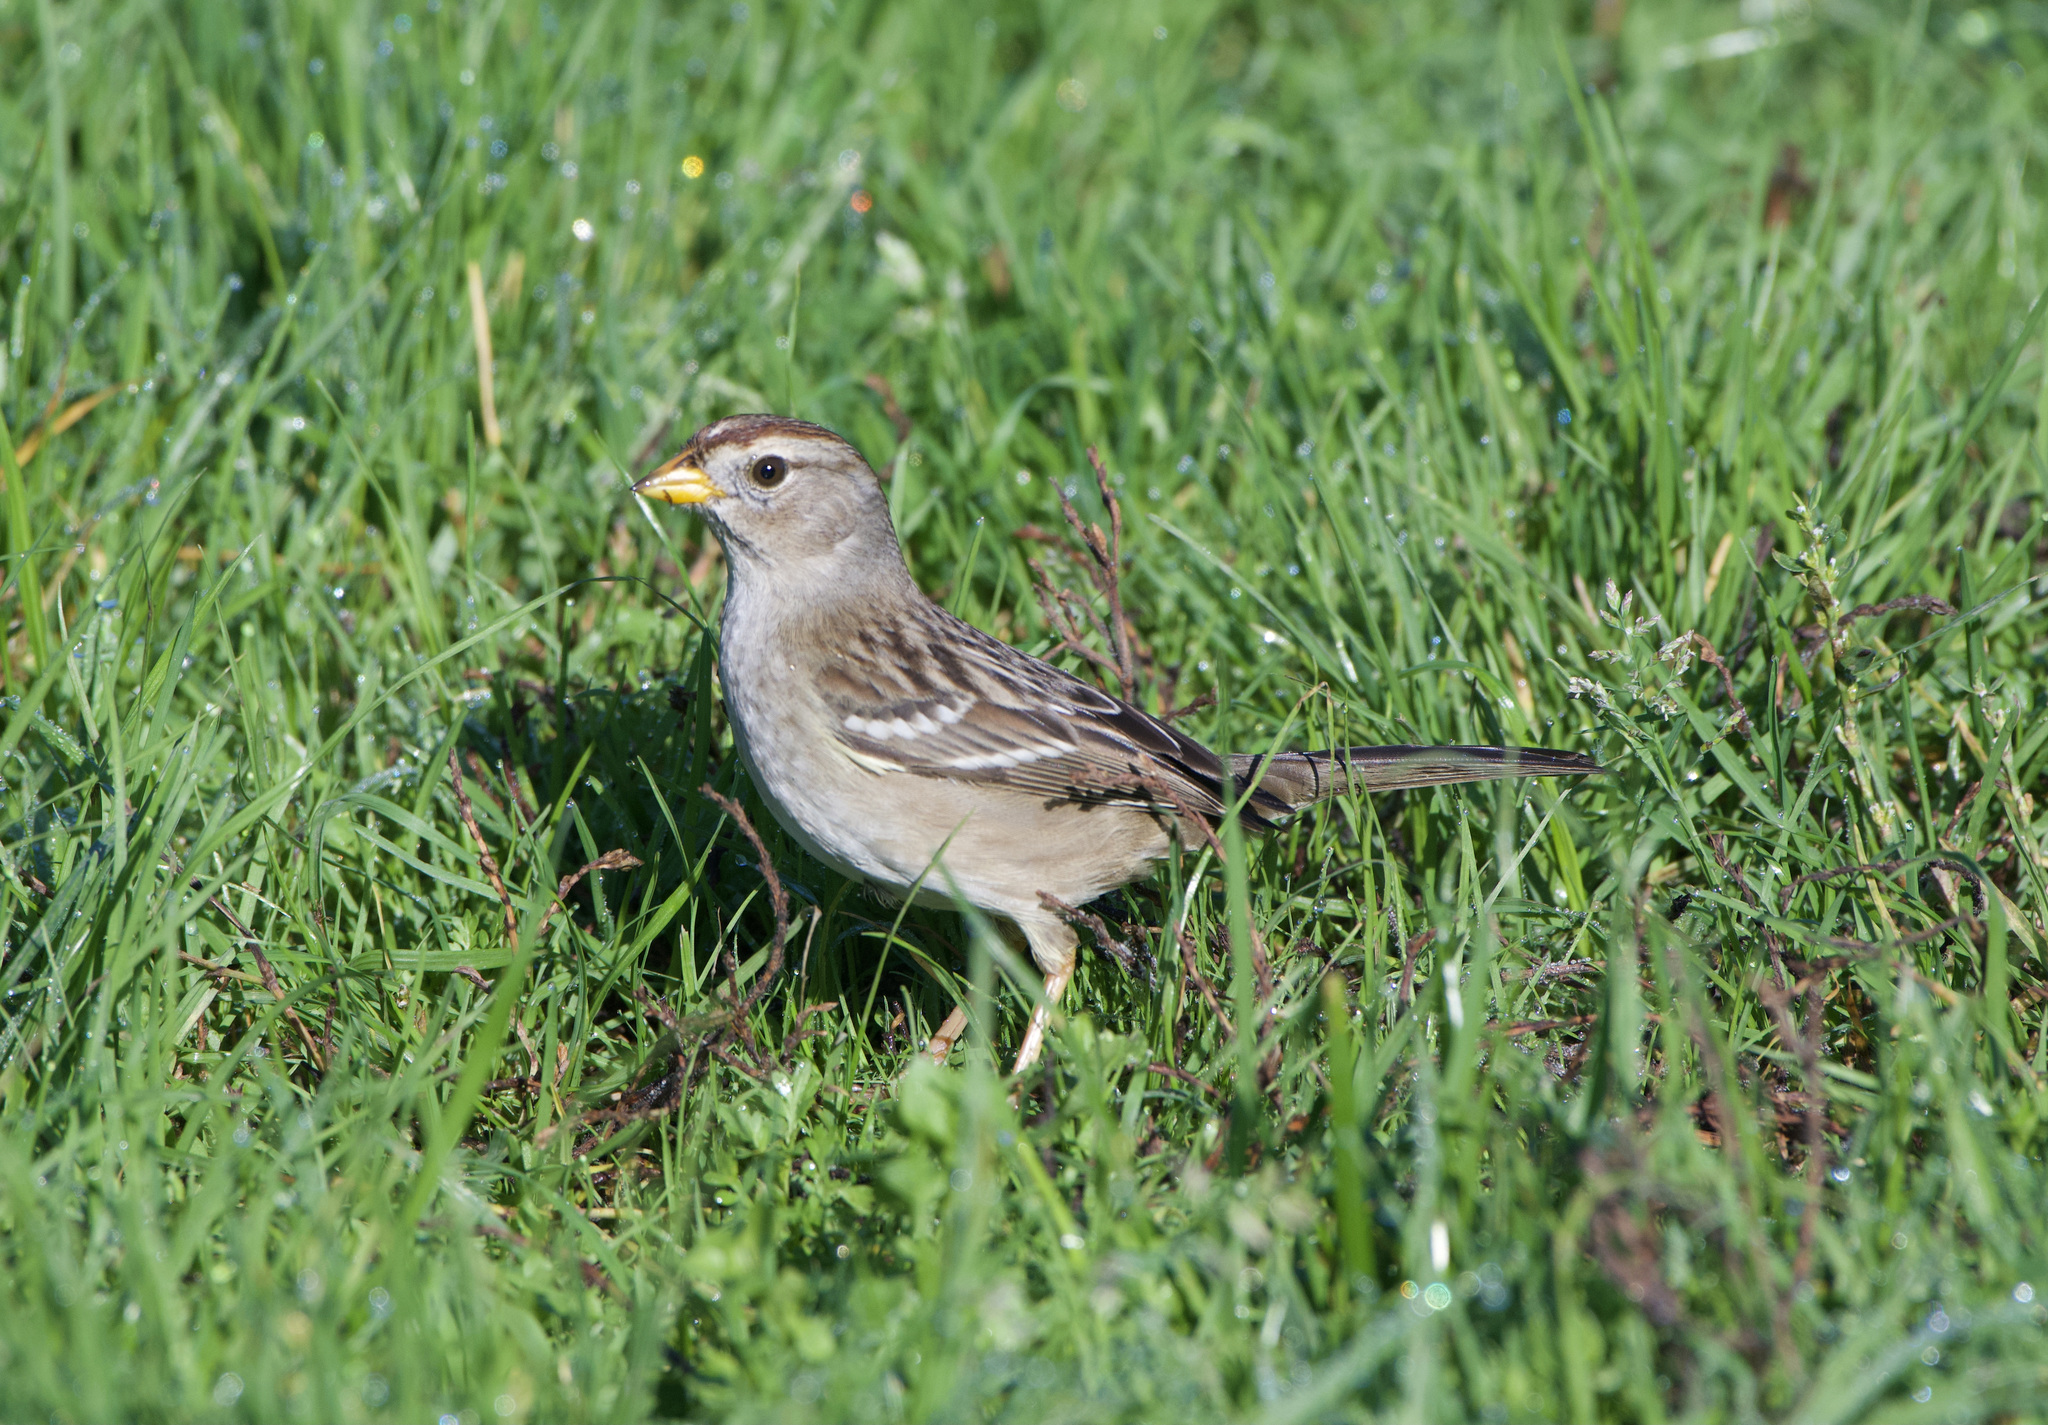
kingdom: Animalia
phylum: Chordata
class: Aves
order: Passeriformes
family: Passerellidae
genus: Zonotrichia
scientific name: Zonotrichia leucophrys
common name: White-crowned sparrow
